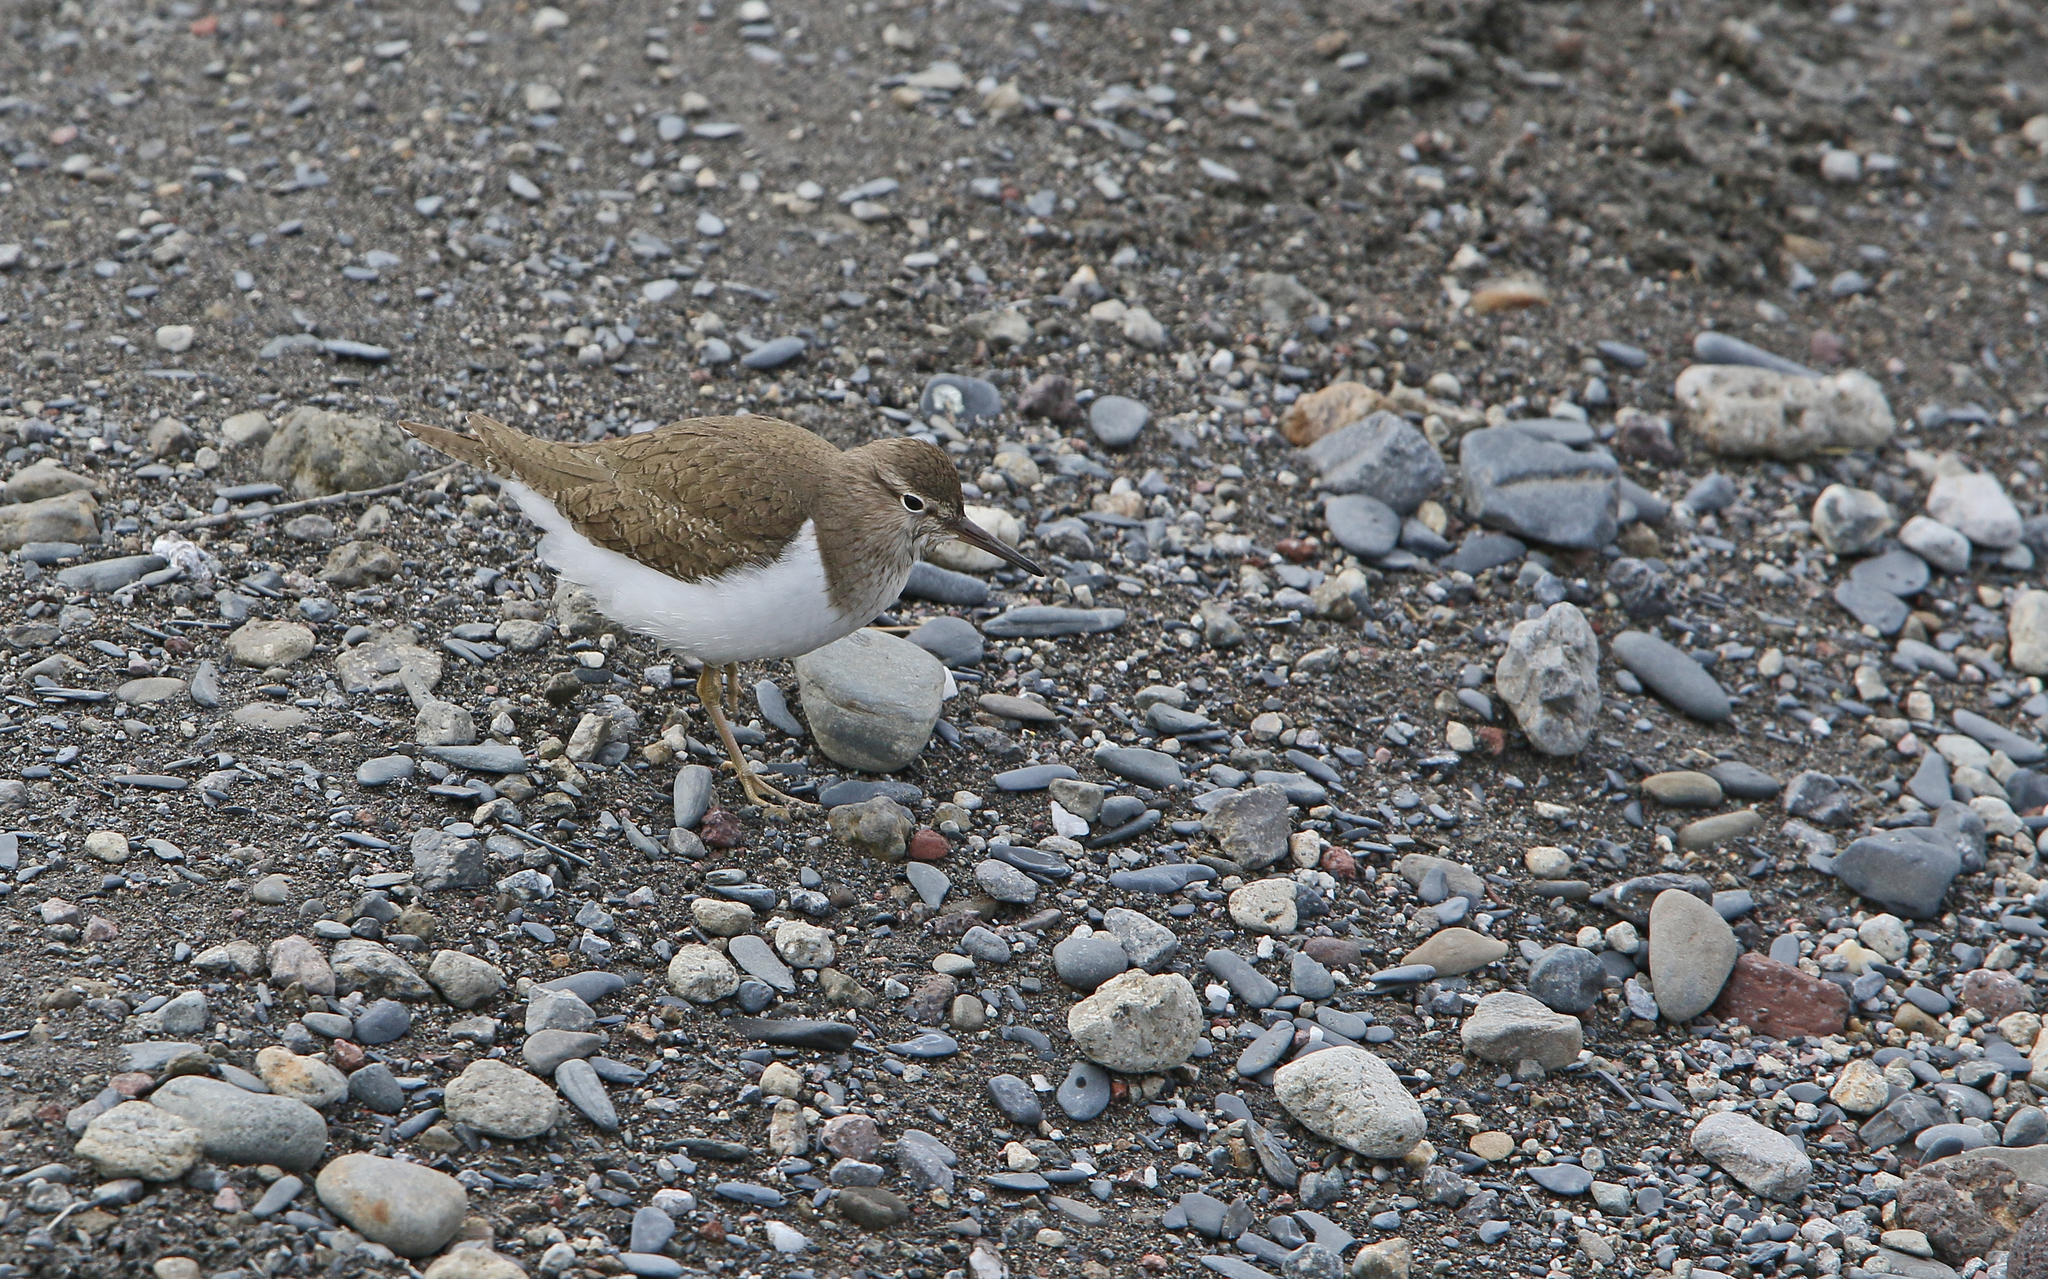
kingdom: Animalia
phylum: Chordata
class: Aves
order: Charadriiformes
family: Scolopacidae
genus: Actitis
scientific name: Actitis hypoleucos
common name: Common sandpiper
